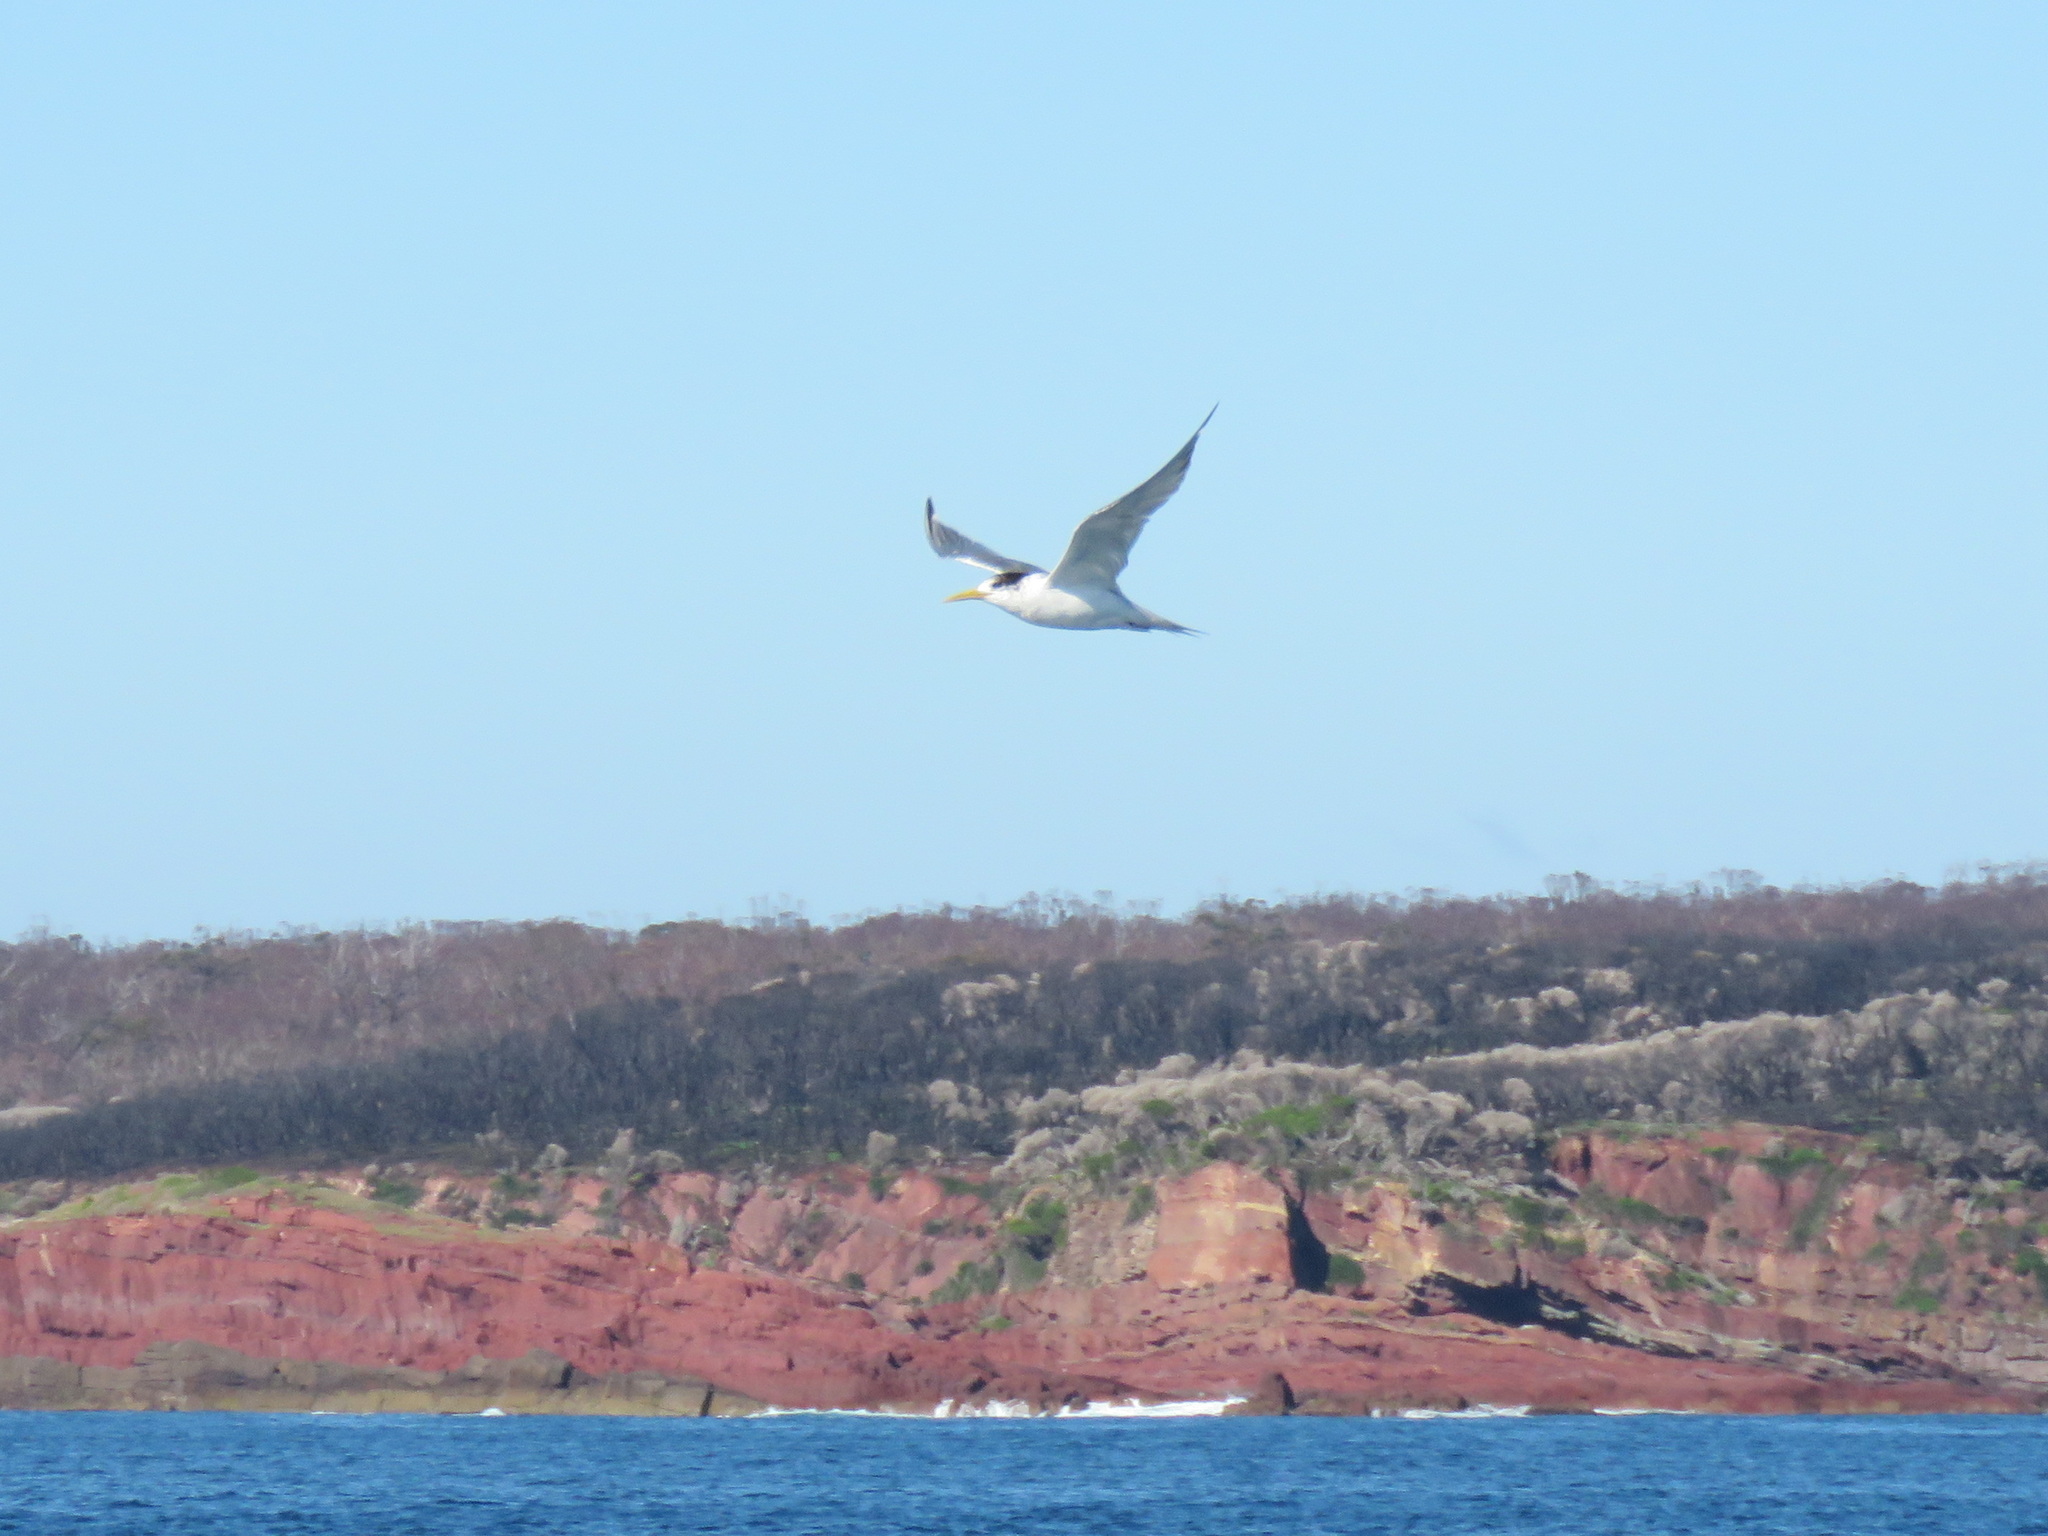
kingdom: Animalia
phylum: Chordata
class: Aves
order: Charadriiformes
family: Laridae
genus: Thalasseus
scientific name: Thalasseus bergii
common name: Greater crested tern
